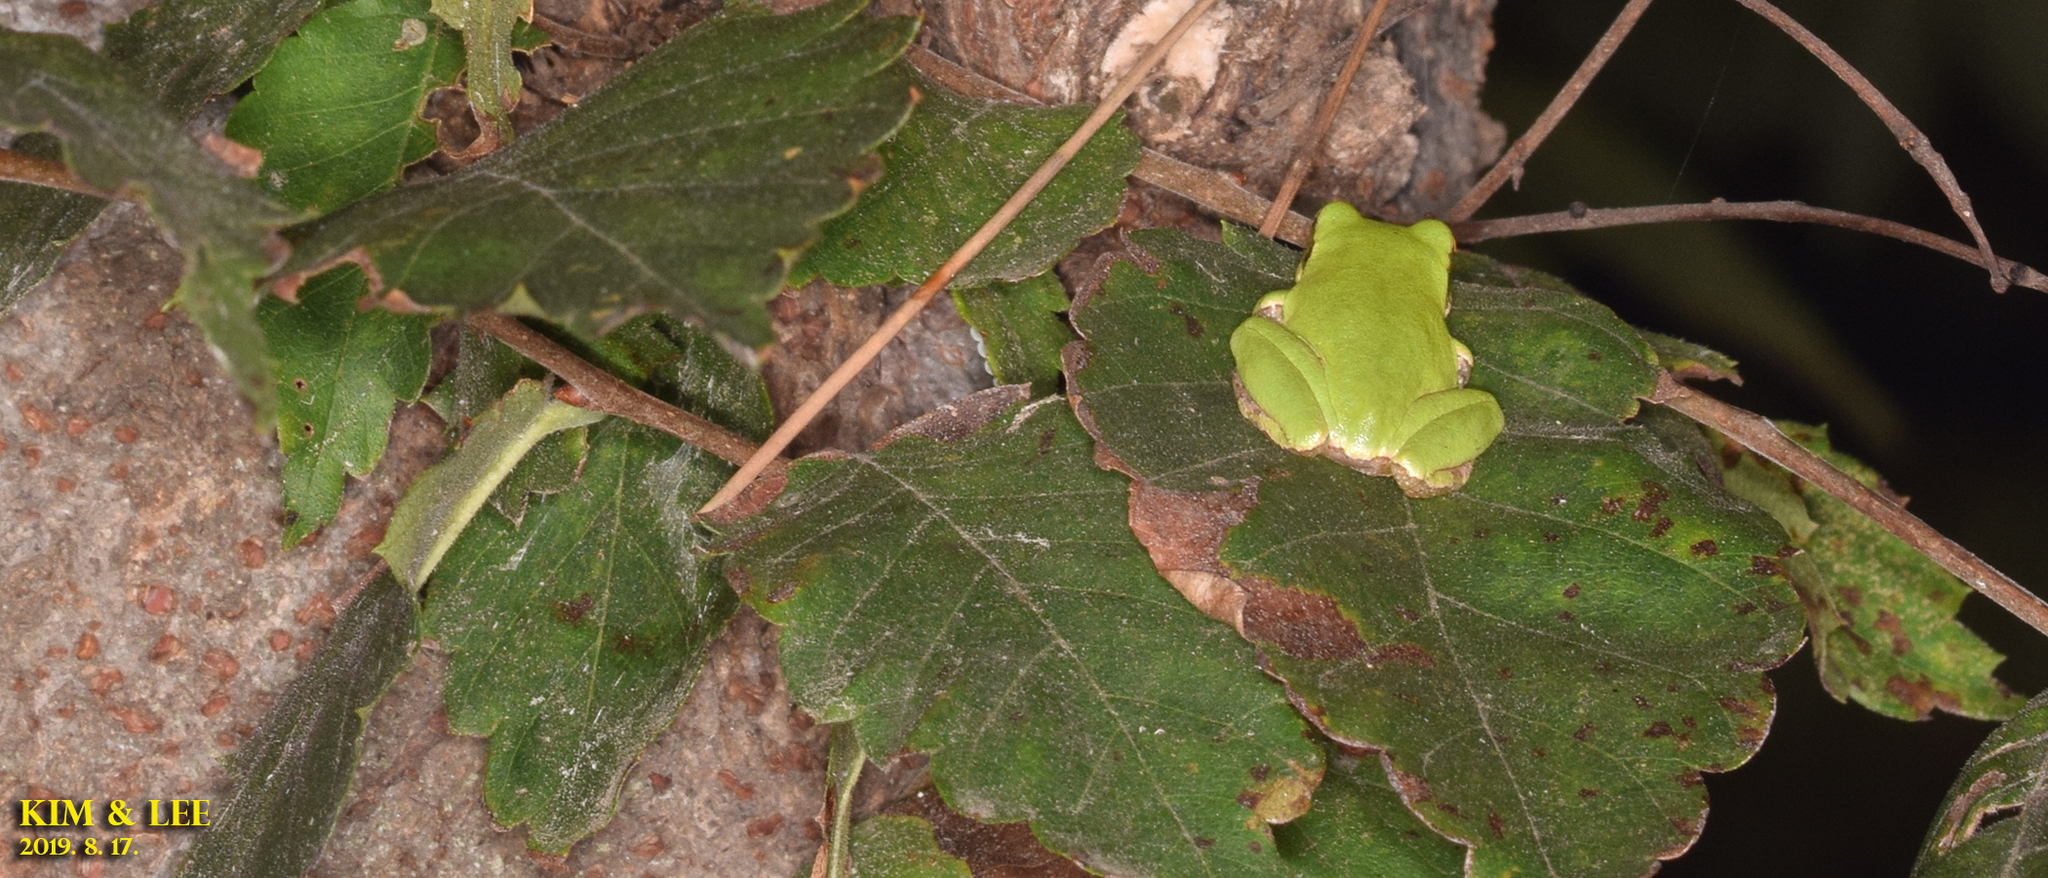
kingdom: Animalia
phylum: Chordata
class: Amphibia
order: Anura
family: Hylidae
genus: Dryophytes
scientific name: Dryophytes japonicus
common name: Japanese treefrog
